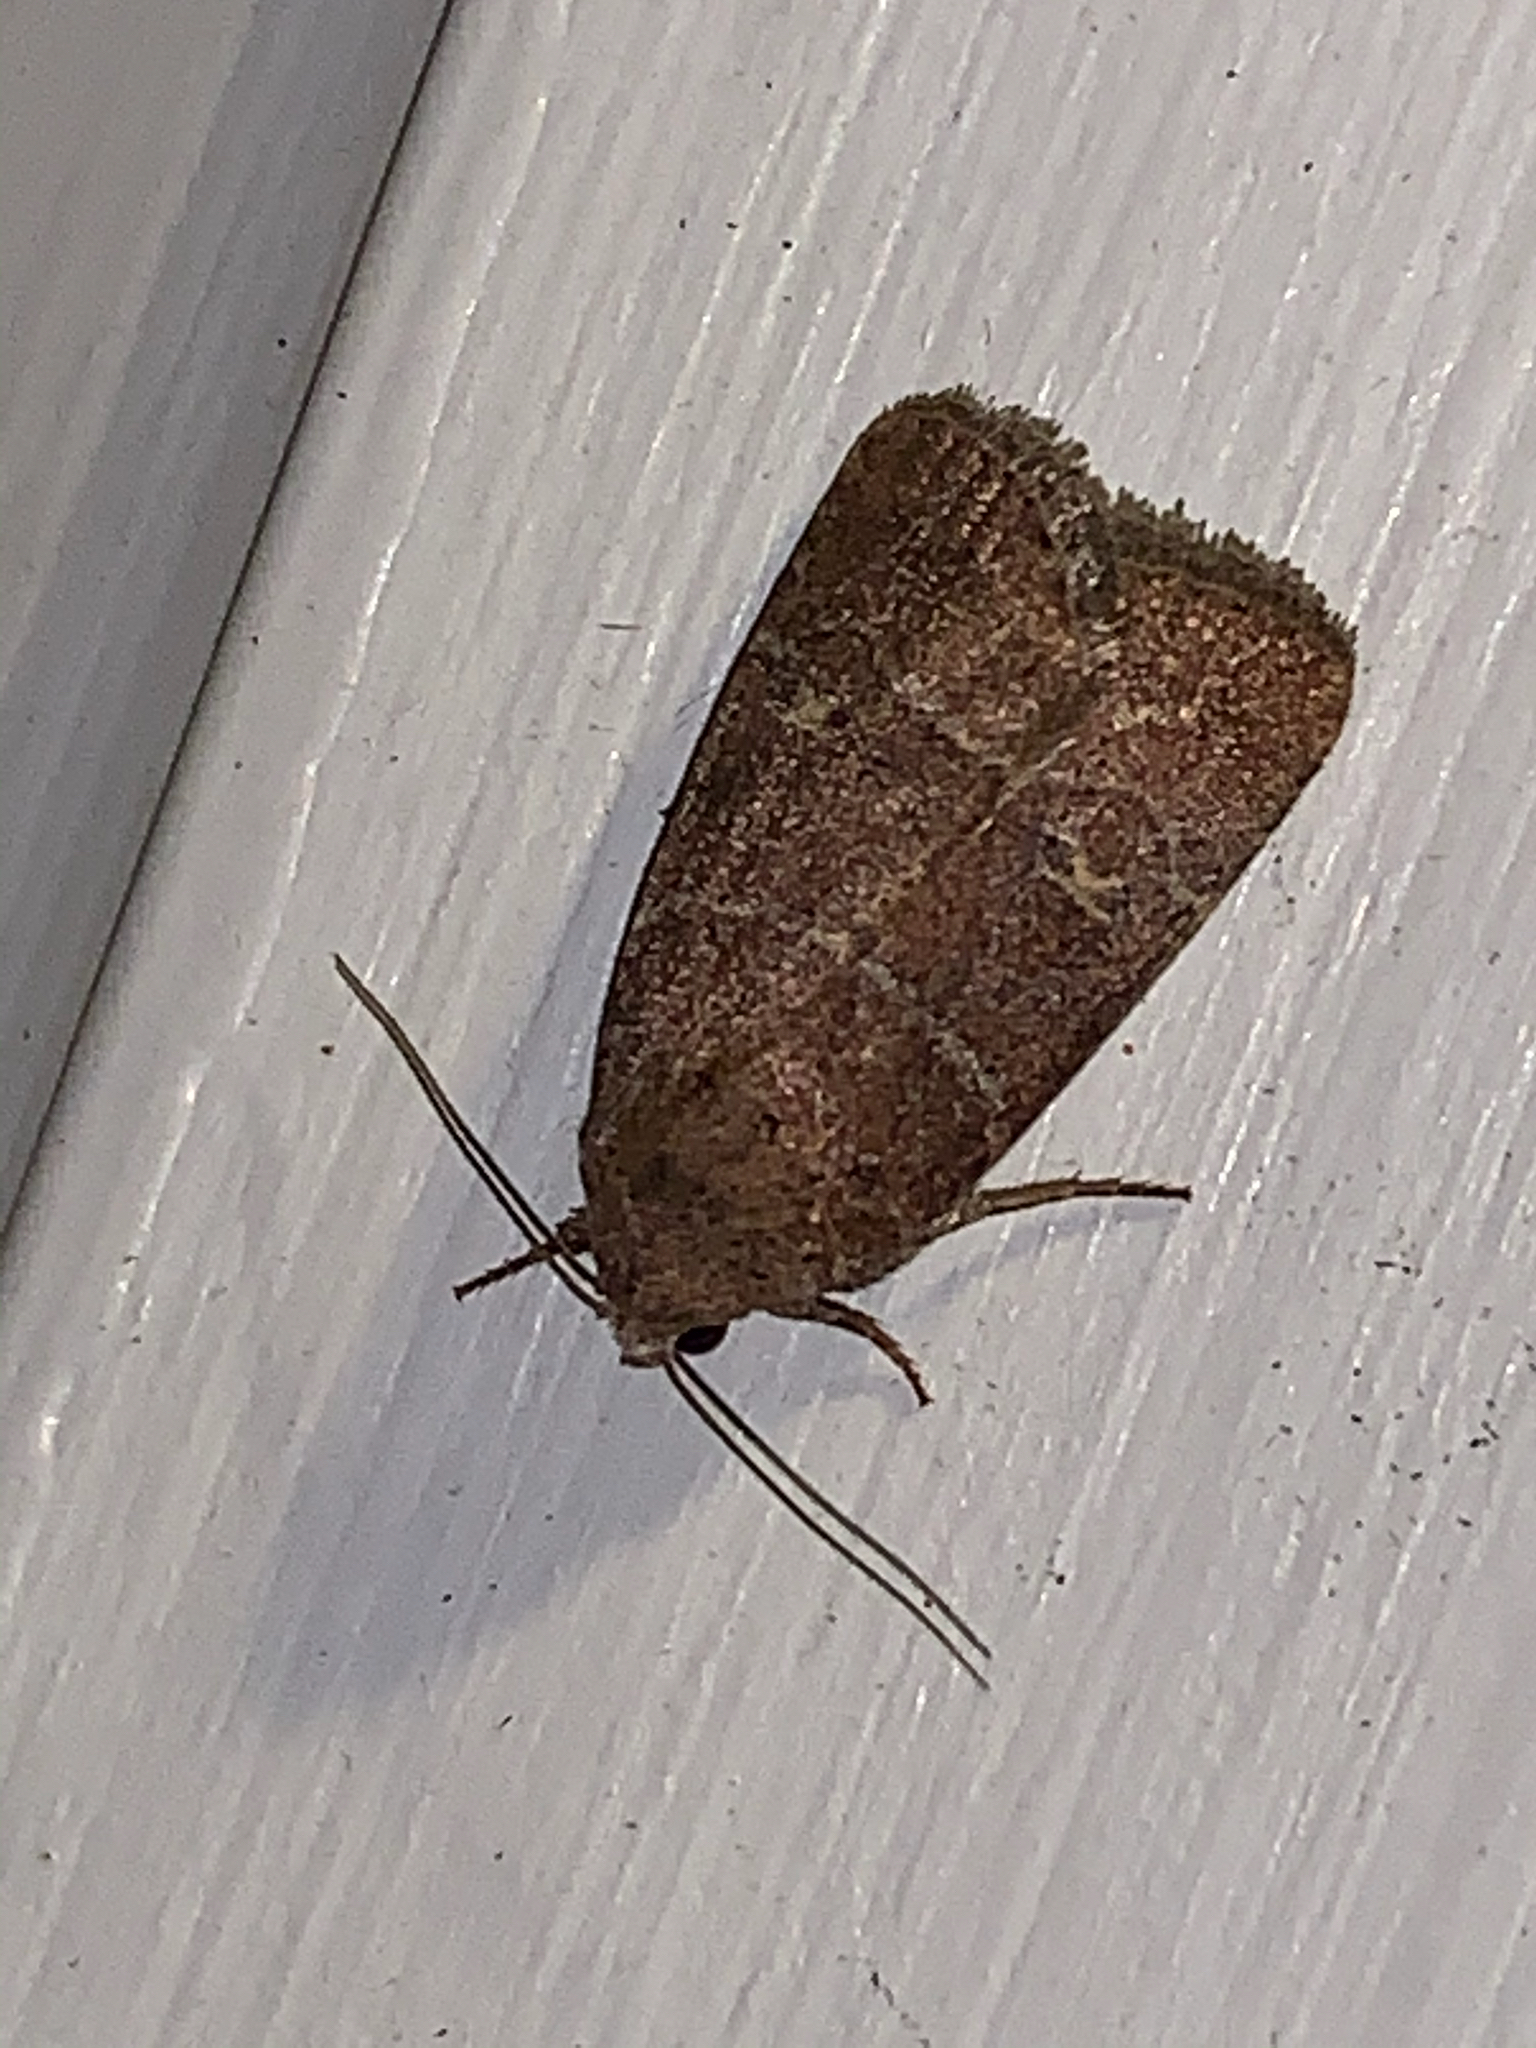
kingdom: Animalia
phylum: Arthropoda
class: Insecta
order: Lepidoptera
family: Noctuidae
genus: Elaphria
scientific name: Elaphria grata
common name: Grateful midget moth
